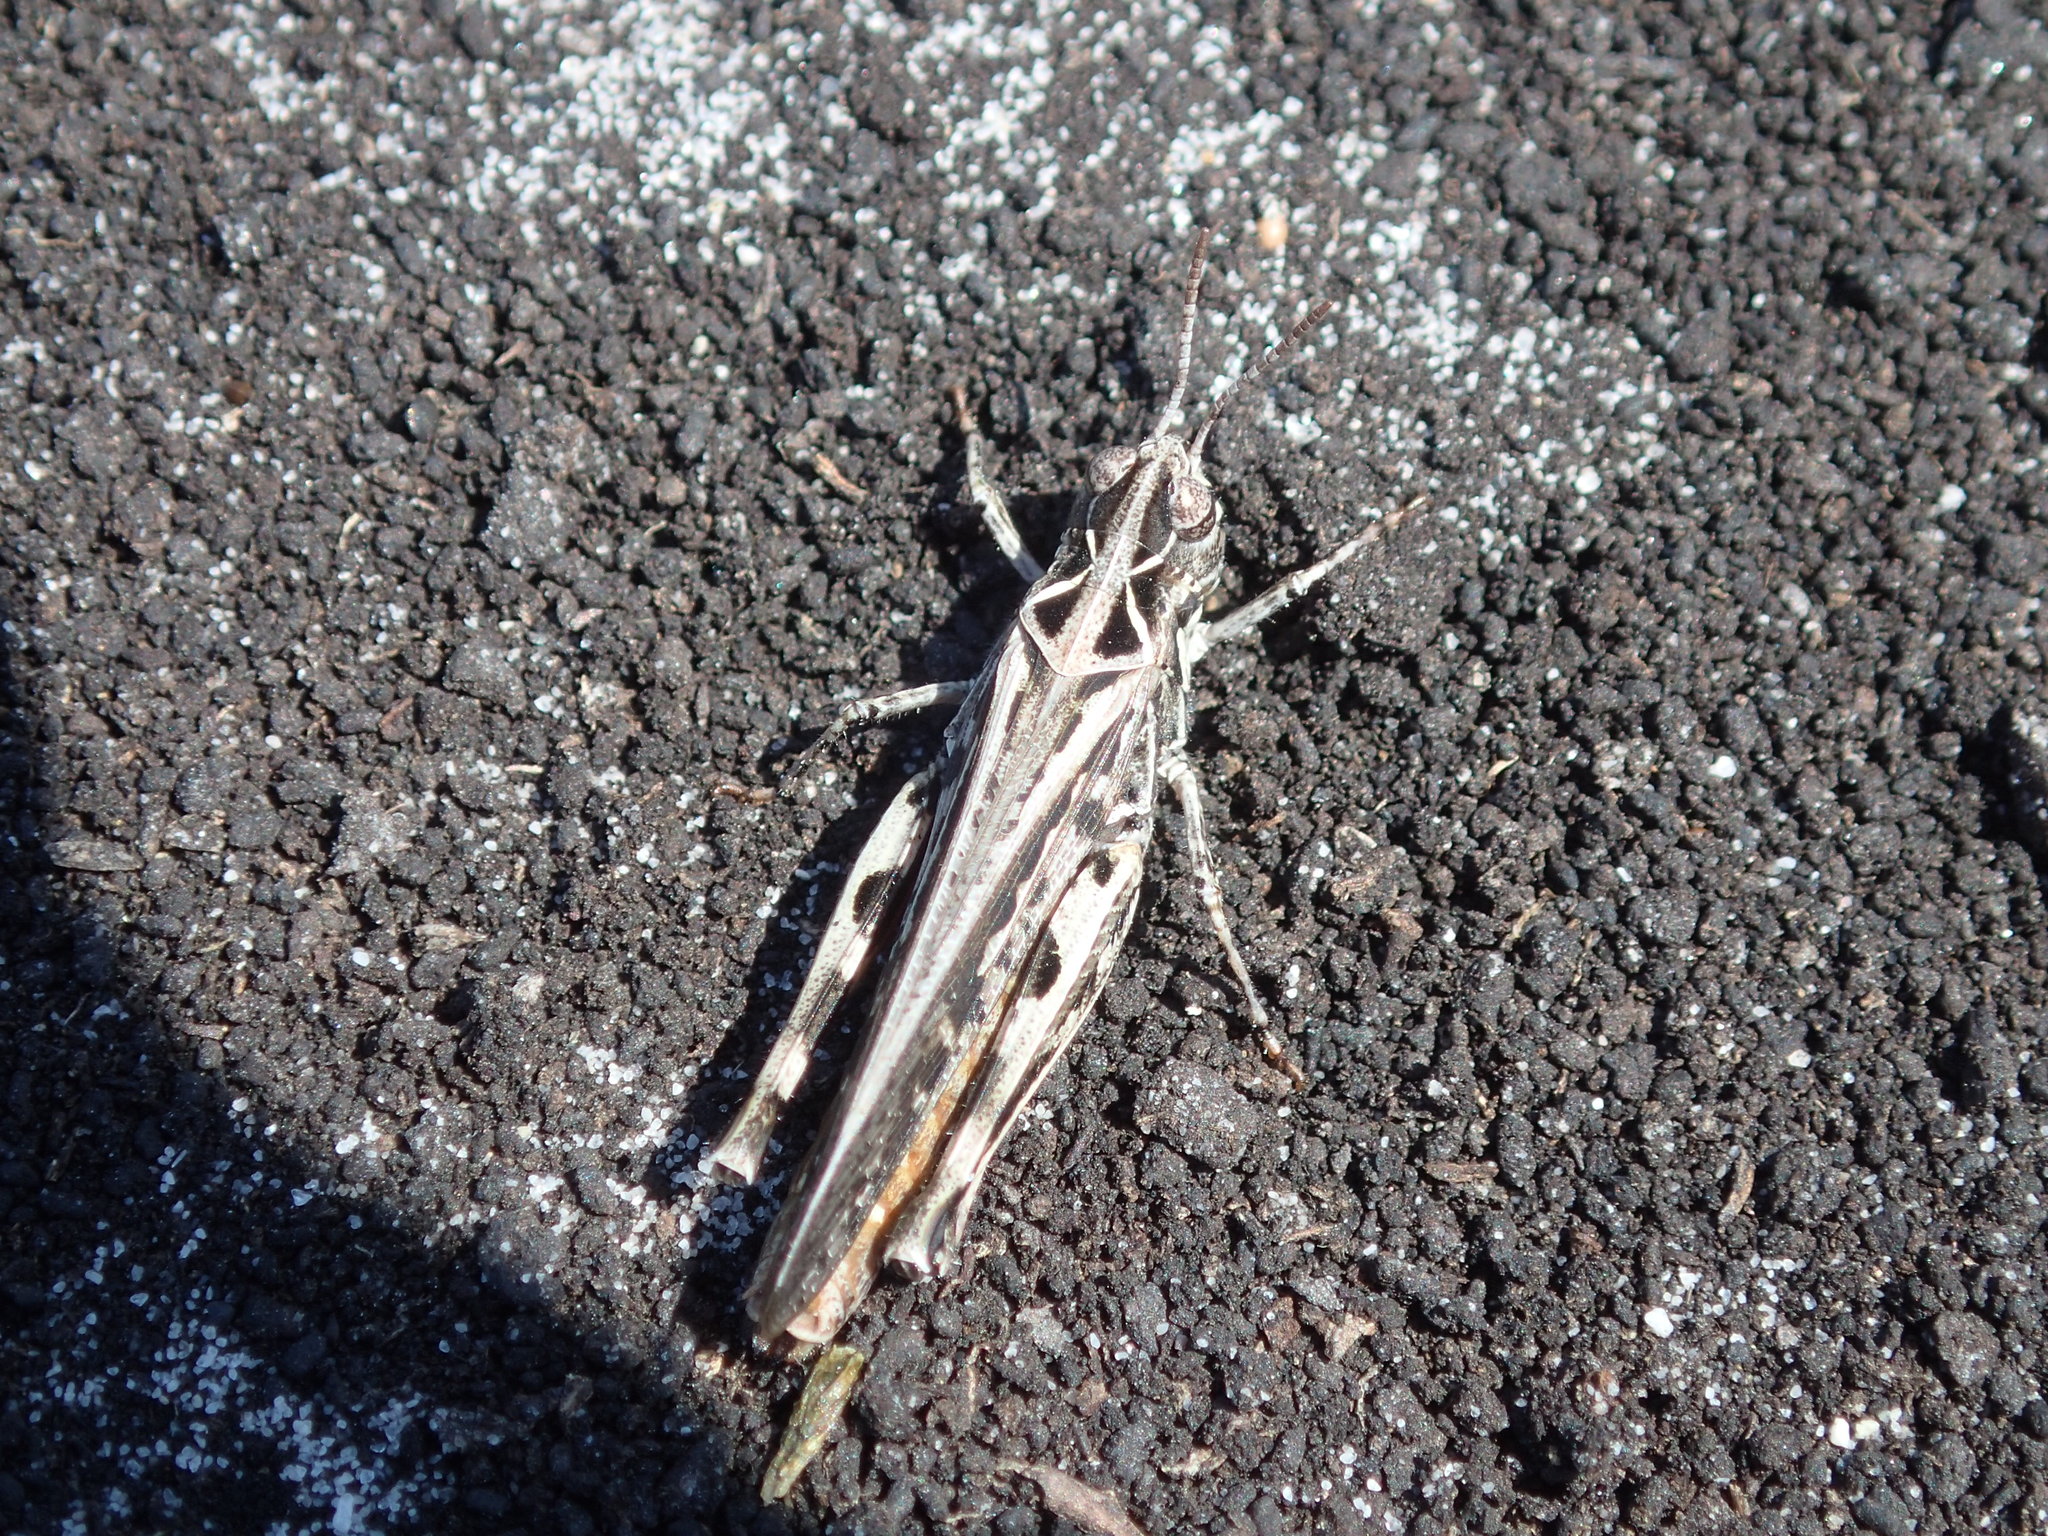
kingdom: Animalia
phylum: Arthropoda
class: Insecta
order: Orthoptera
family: Acrididae
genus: Austroicetes
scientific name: Austroicetes vulgaris
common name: Southeastern austroicetes
